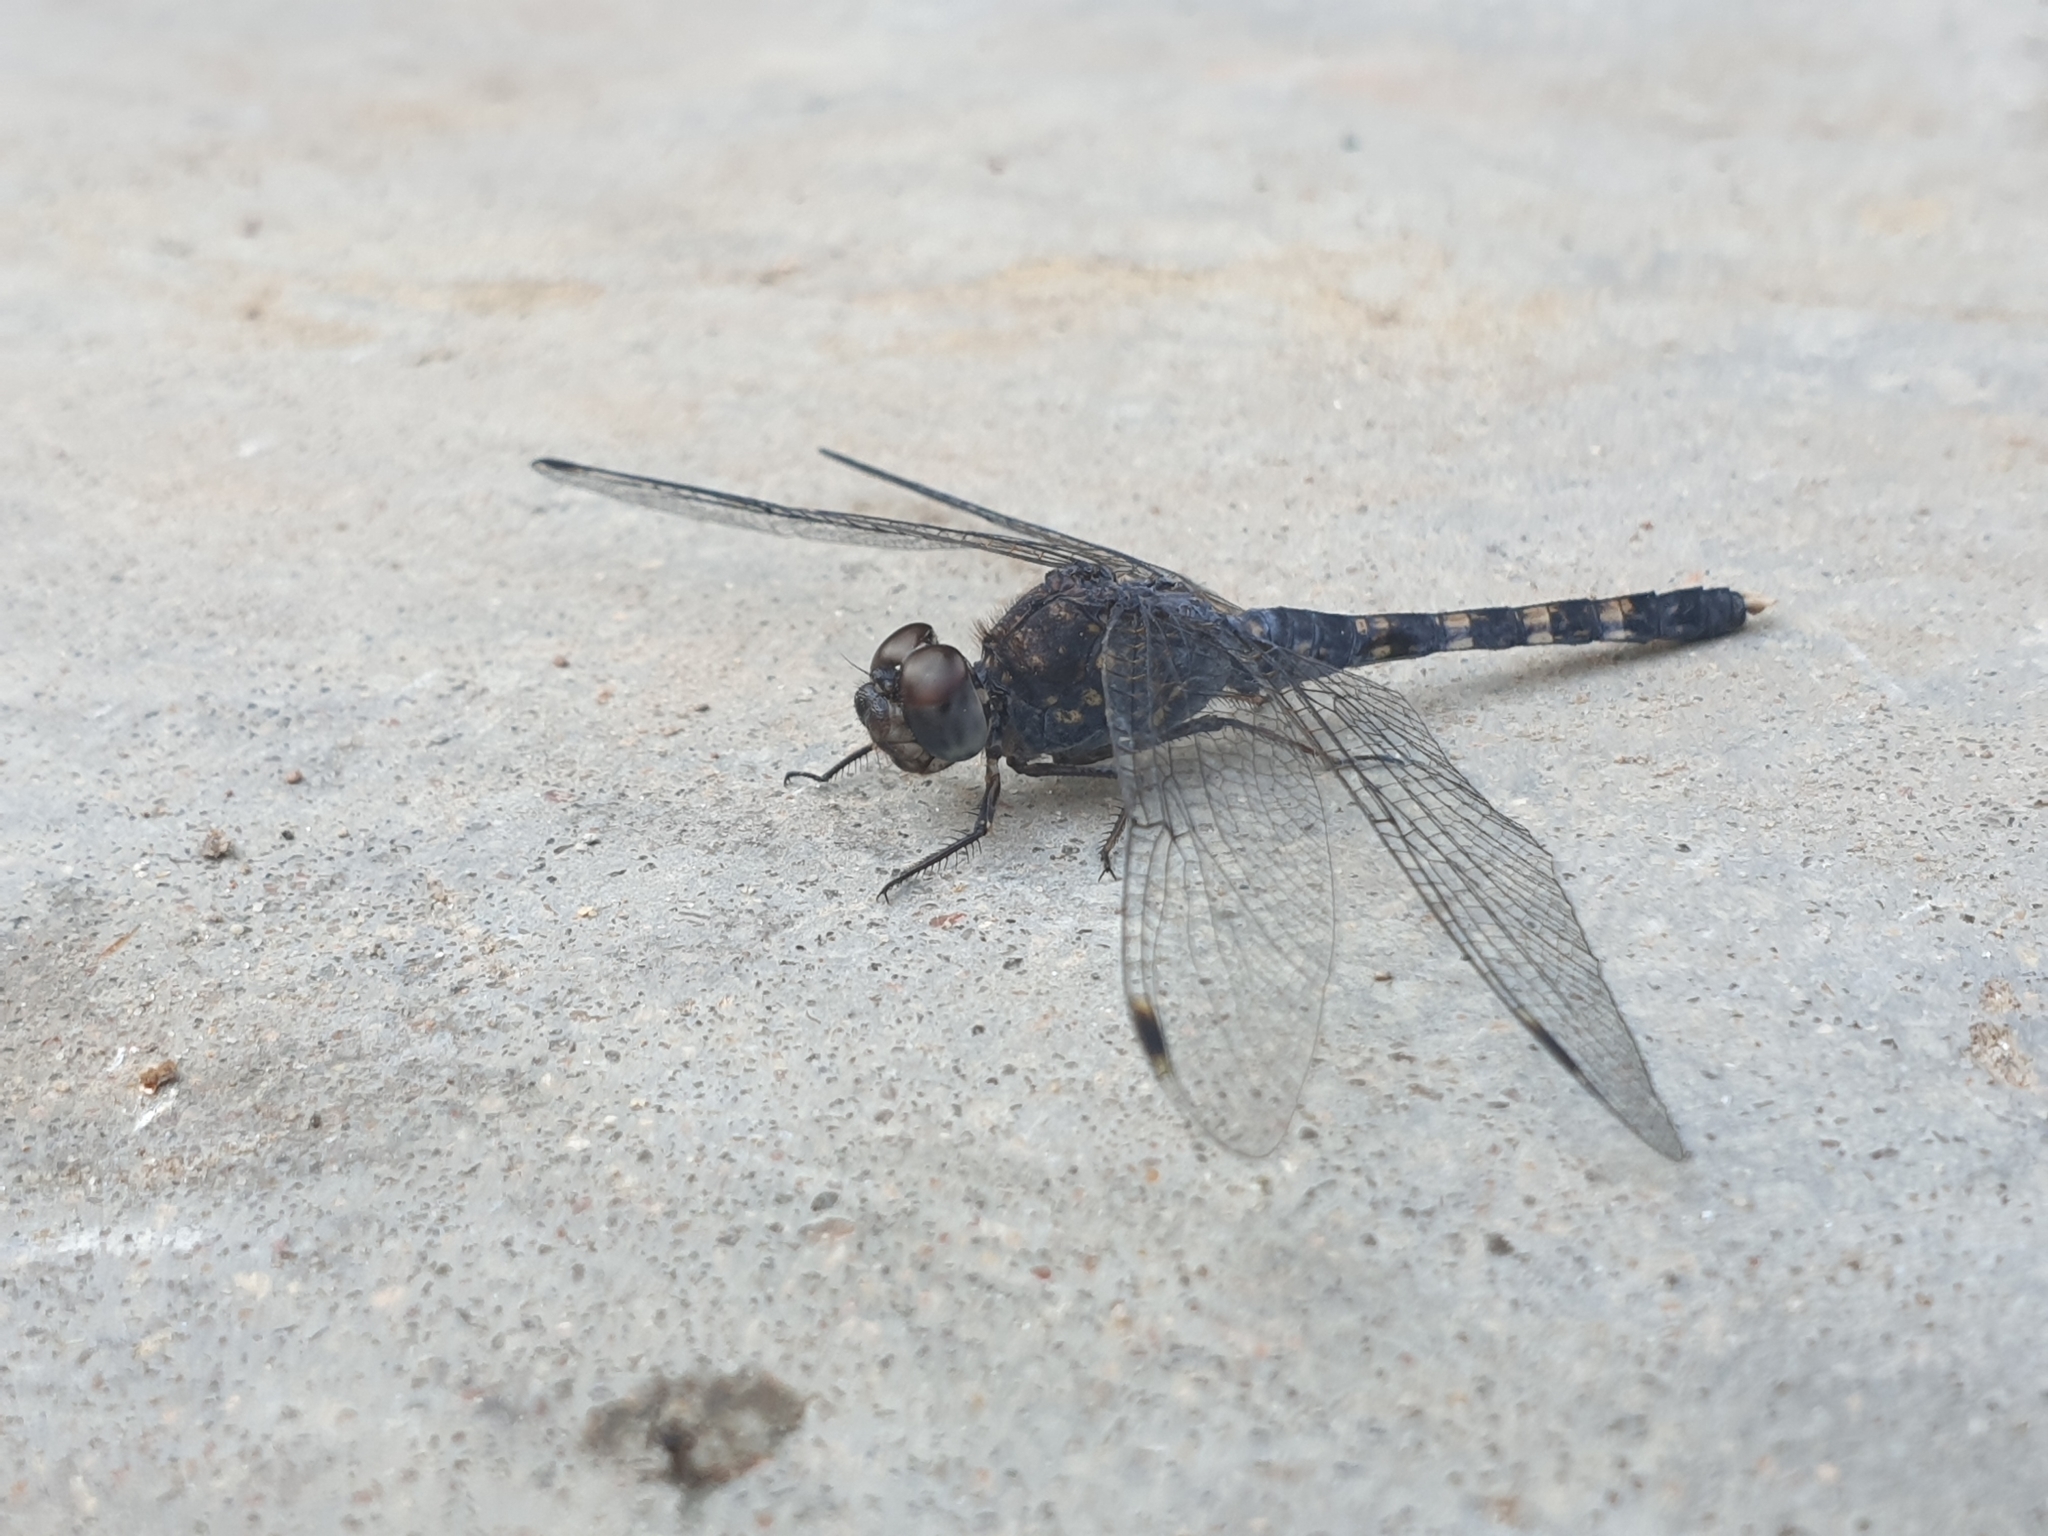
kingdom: Animalia
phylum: Arthropoda
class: Insecta
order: Odonata
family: Libellulidae
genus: Bradinopyga
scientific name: Bradinopyga geminata
